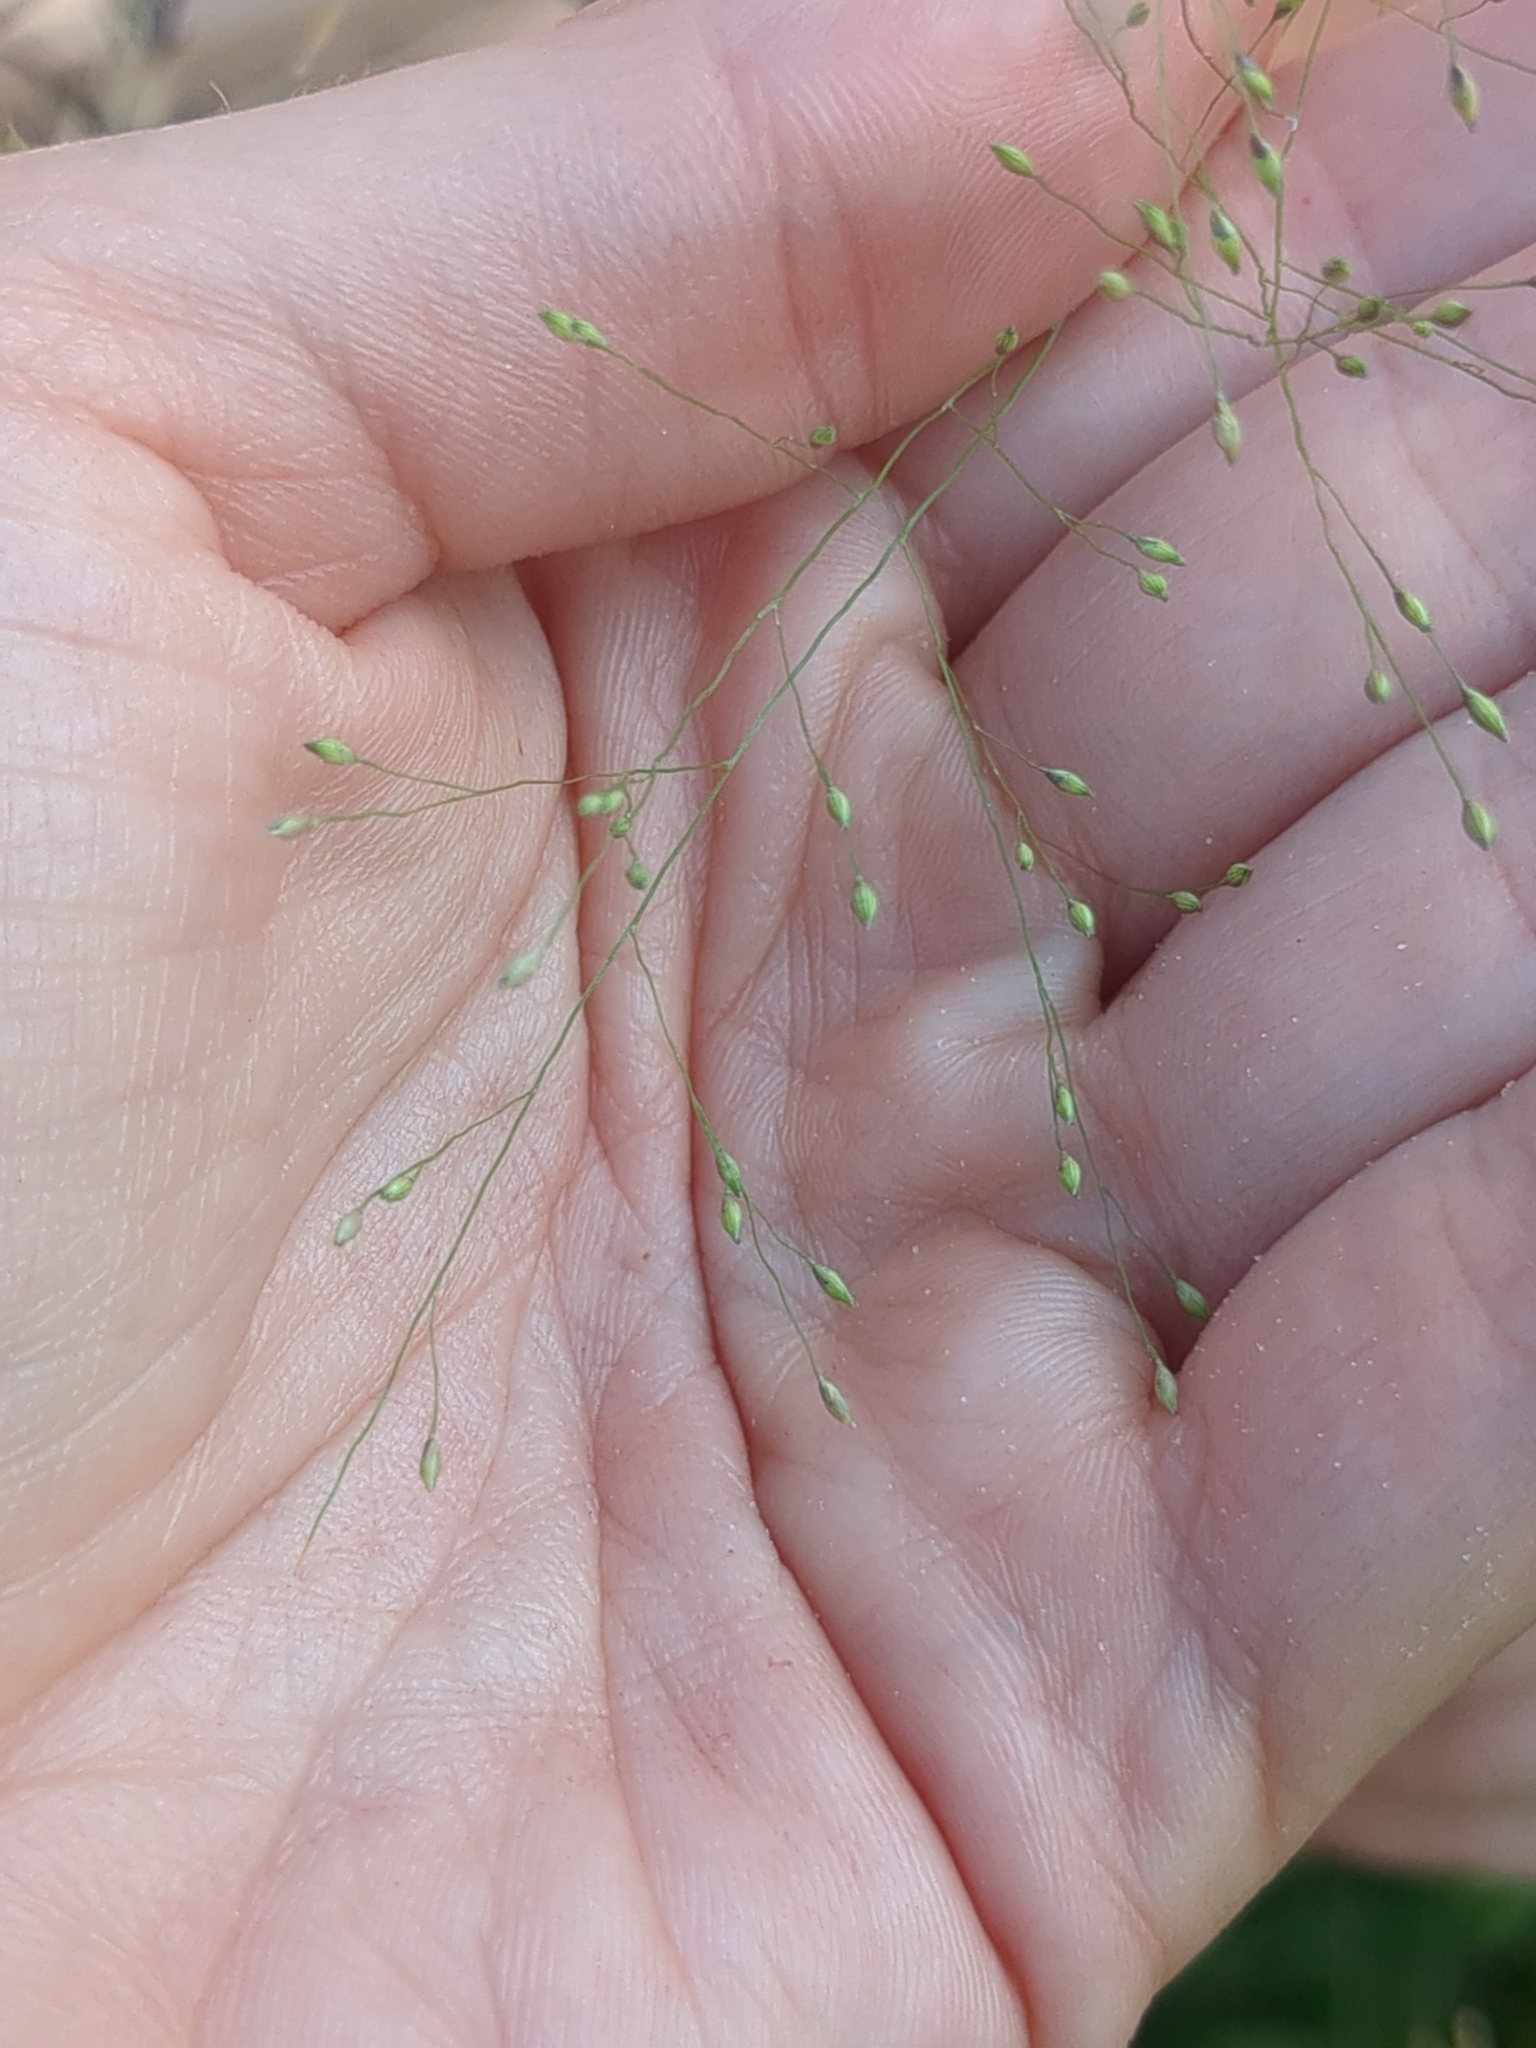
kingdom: Plantae
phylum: Tracheophyta
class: Liliopsida
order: Poales
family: Poaceae
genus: Panicum
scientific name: Panicum capillare
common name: Witch-grass
